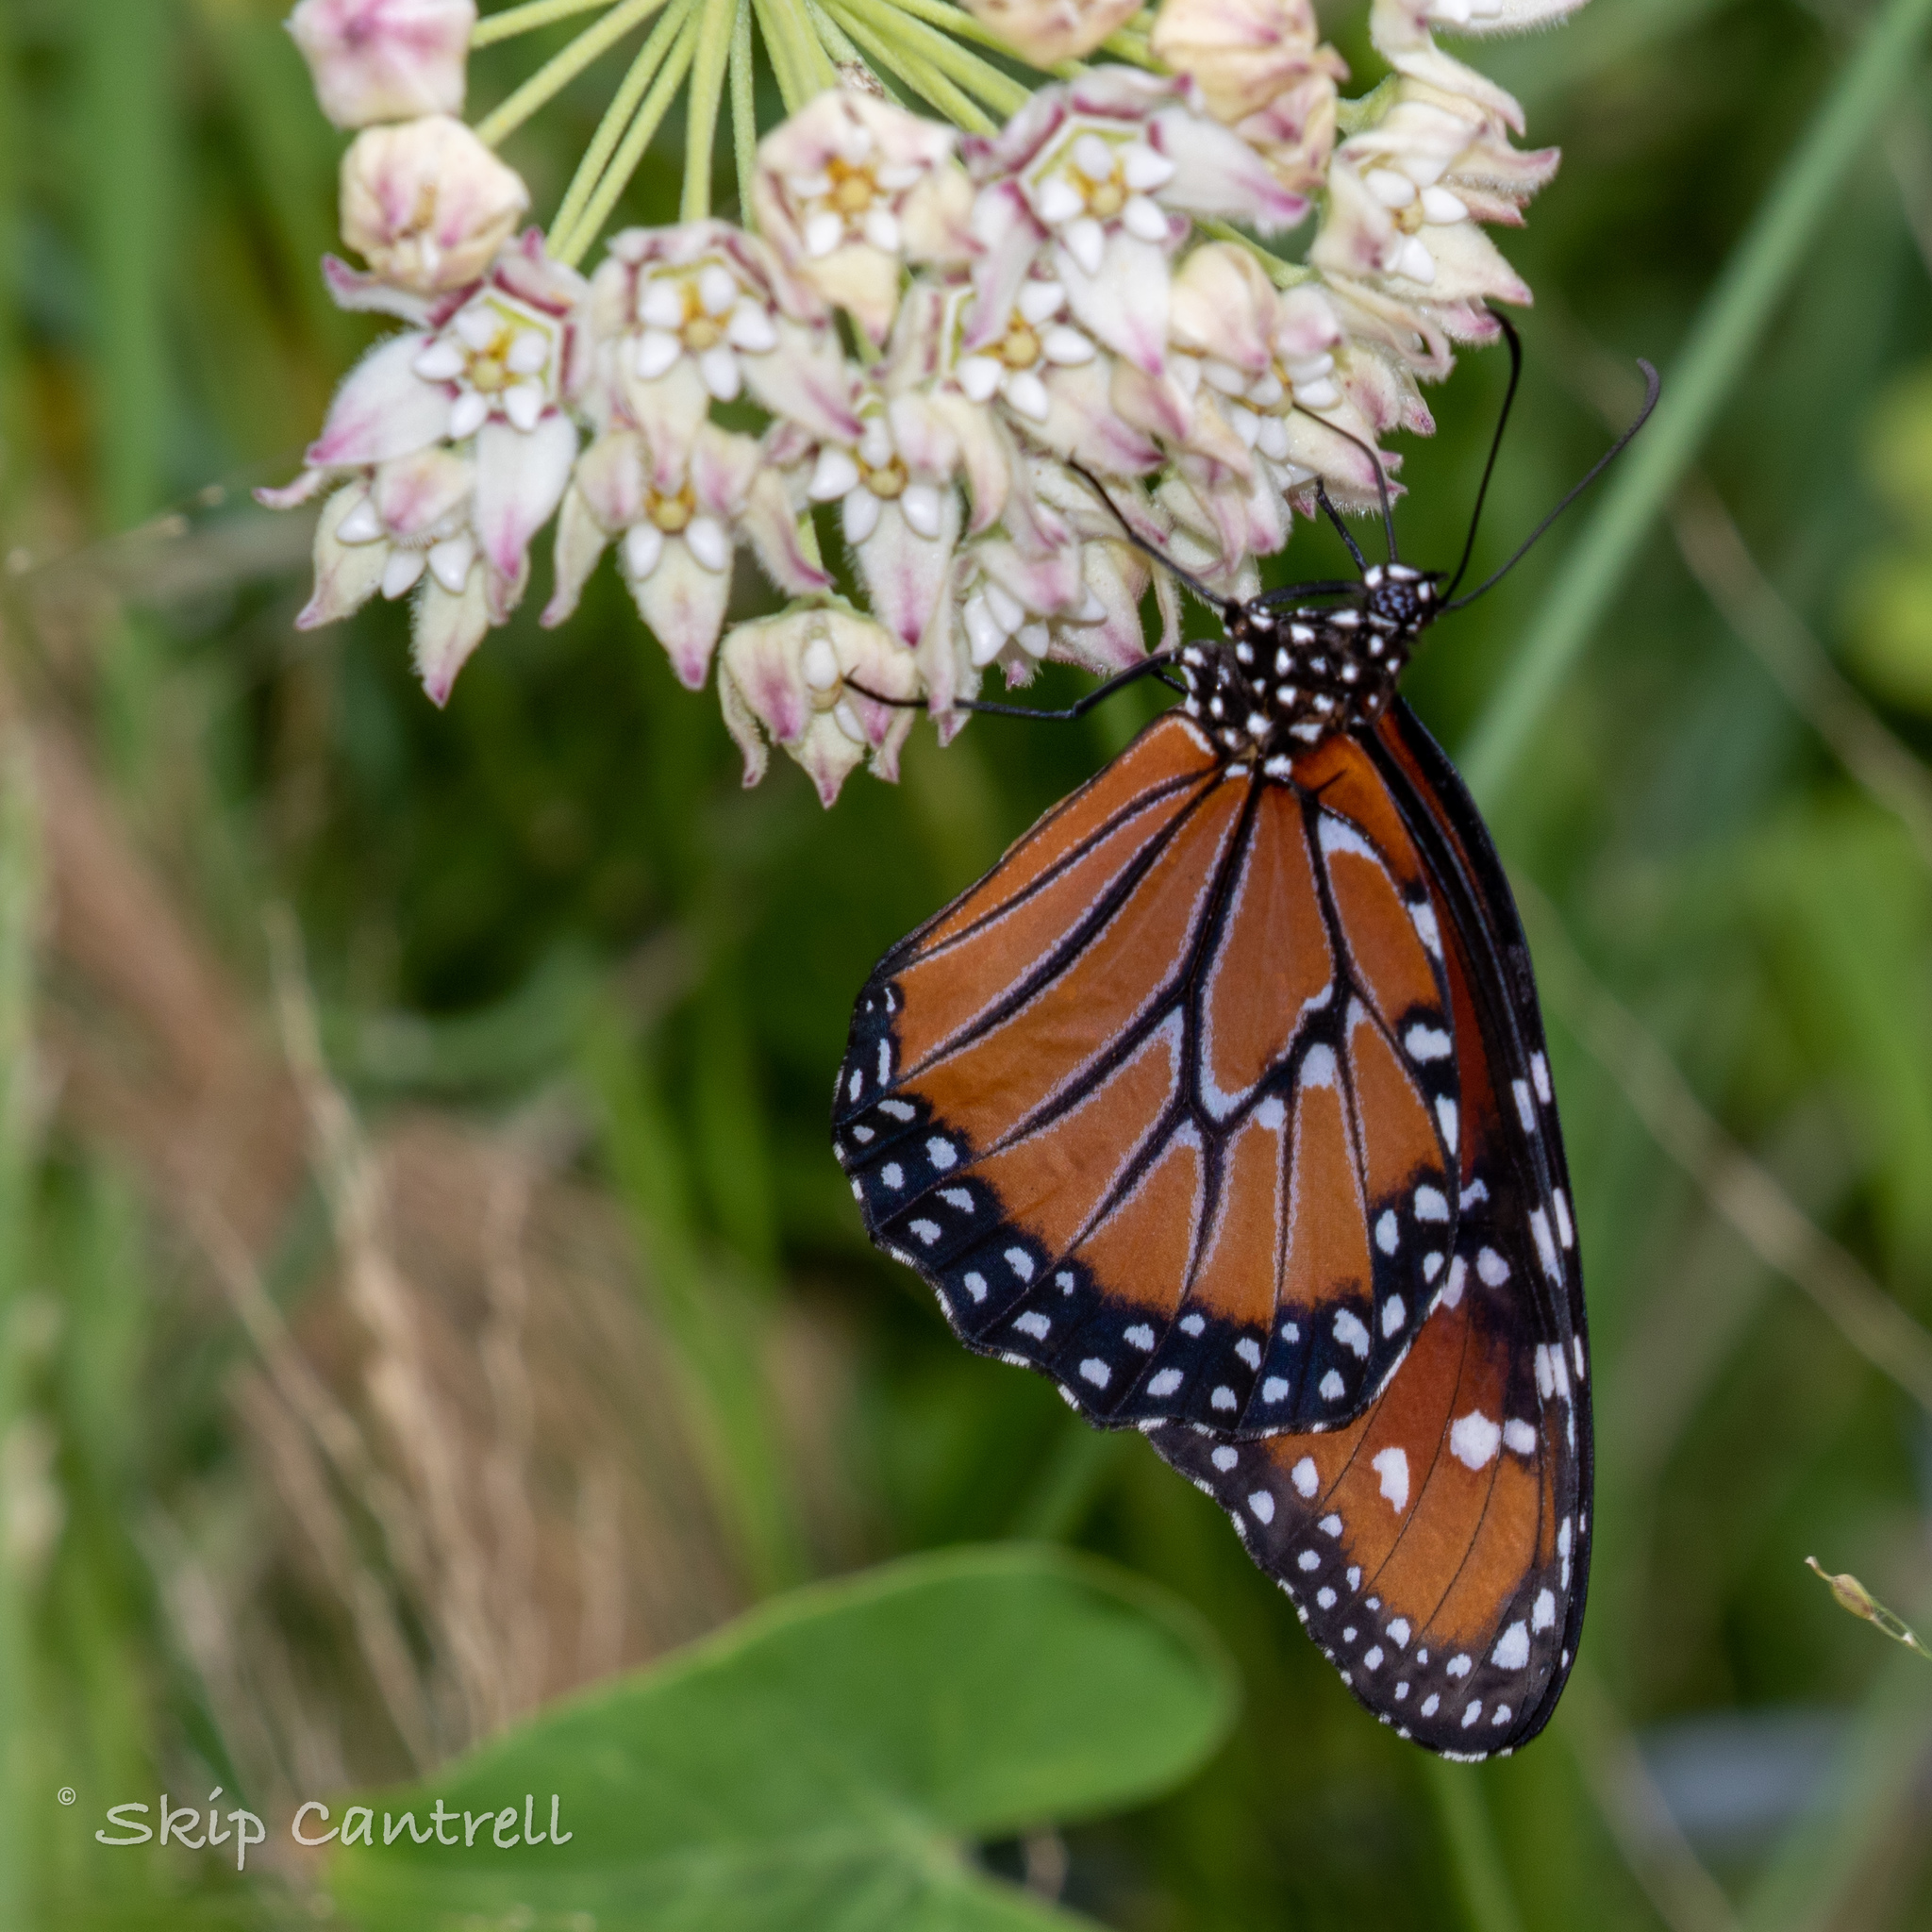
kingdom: Animalia
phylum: Arthropoda
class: Insecta
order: Lepidoptera
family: Nymphalidae
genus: Danaus
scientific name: Danaus gilippus
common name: Queen
